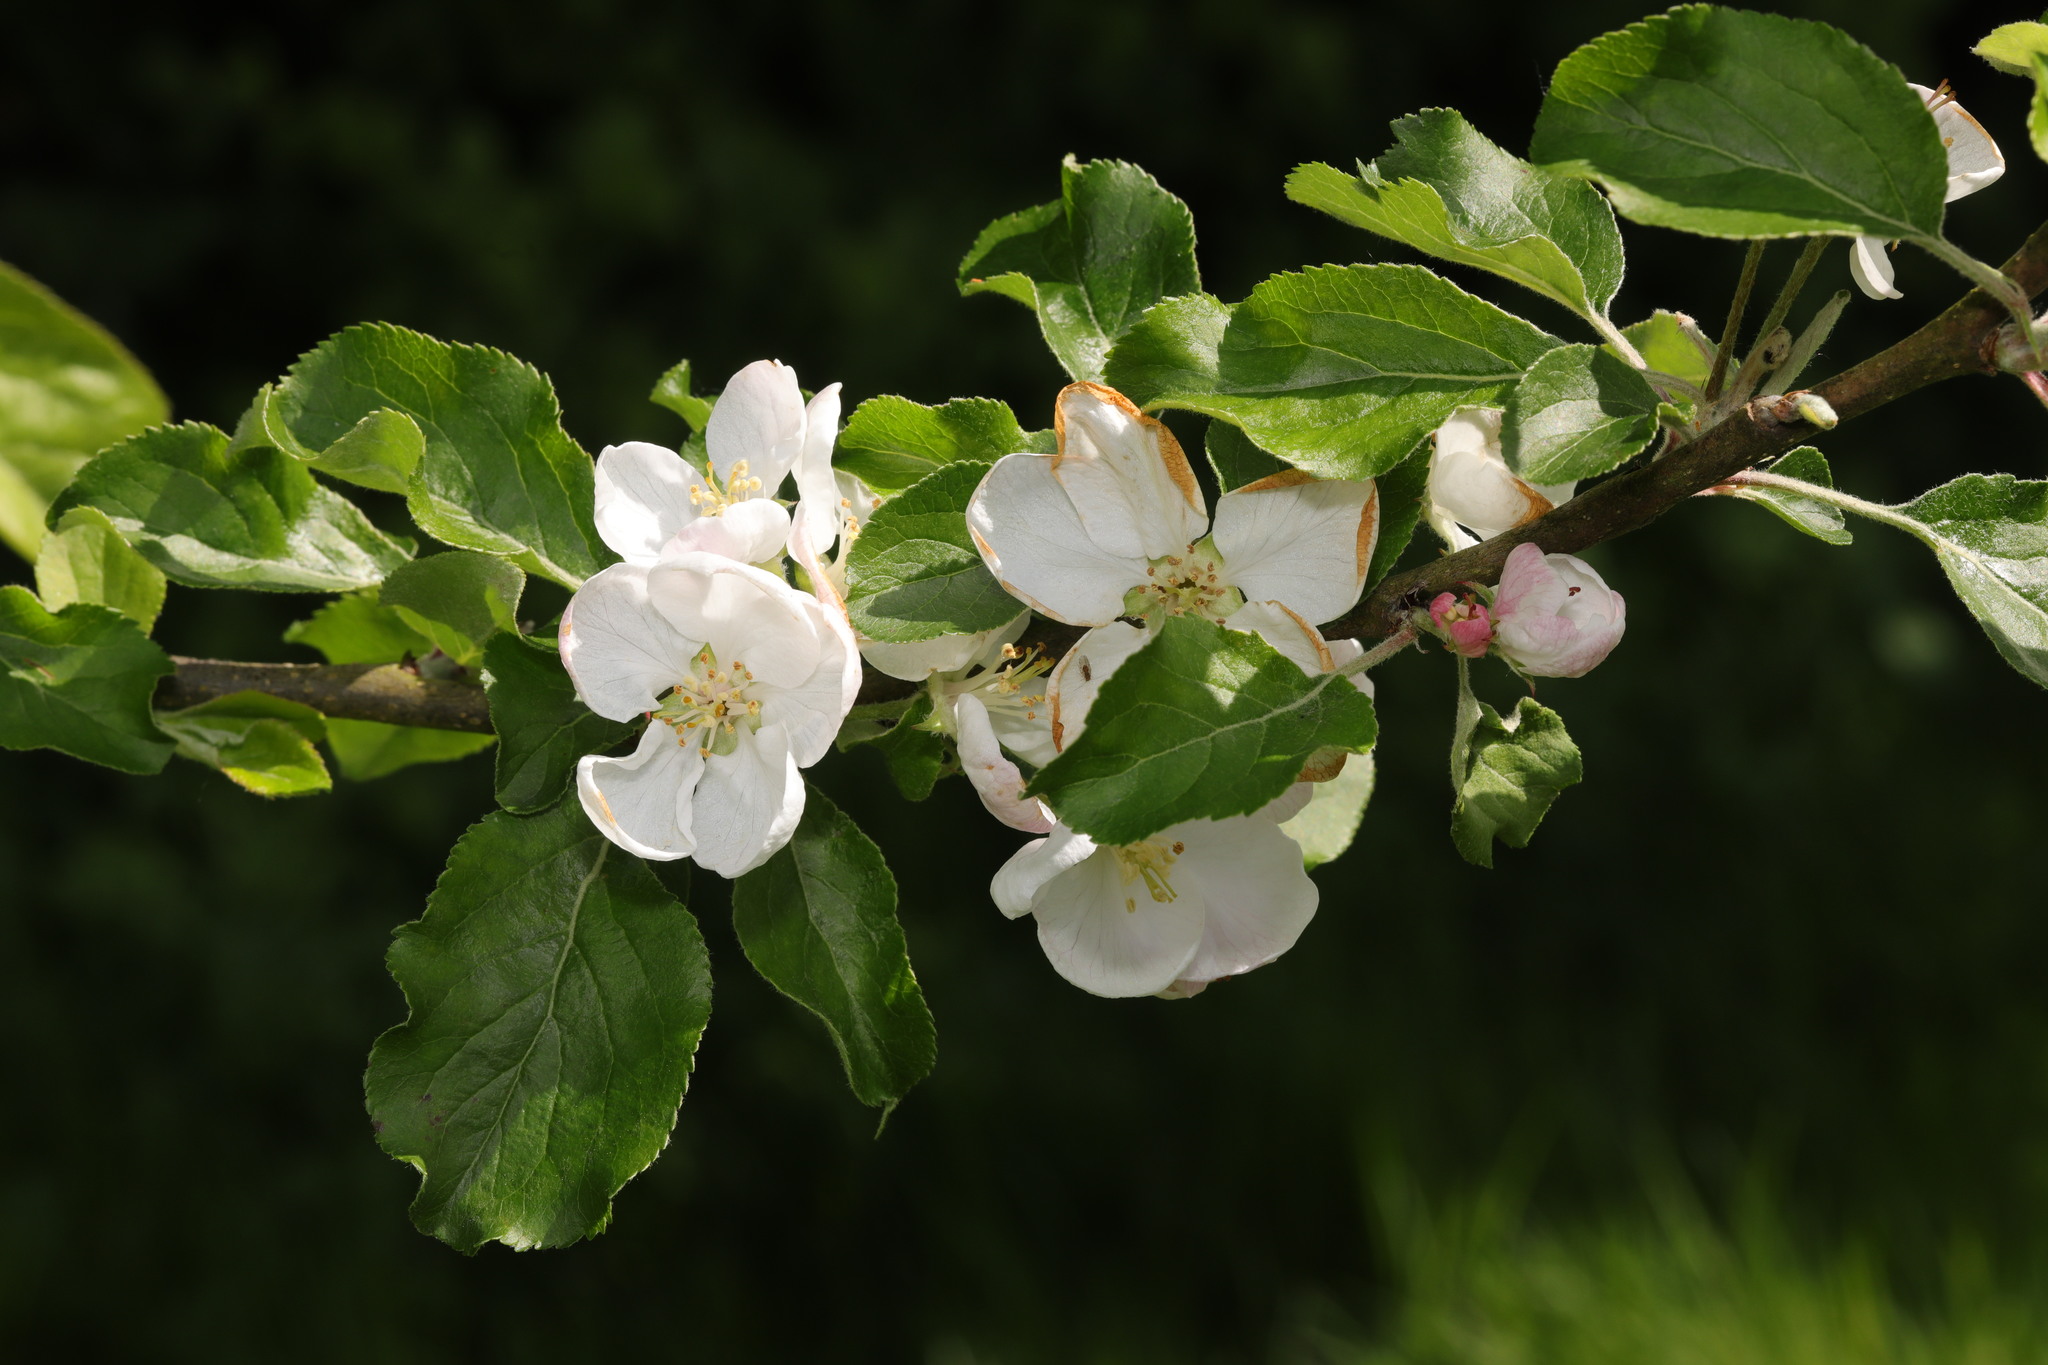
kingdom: Plantae
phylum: Tracheophyta
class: Magnoliopsida
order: Rosales
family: Rosaceae
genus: Malus
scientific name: Malus domestica
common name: Apple
